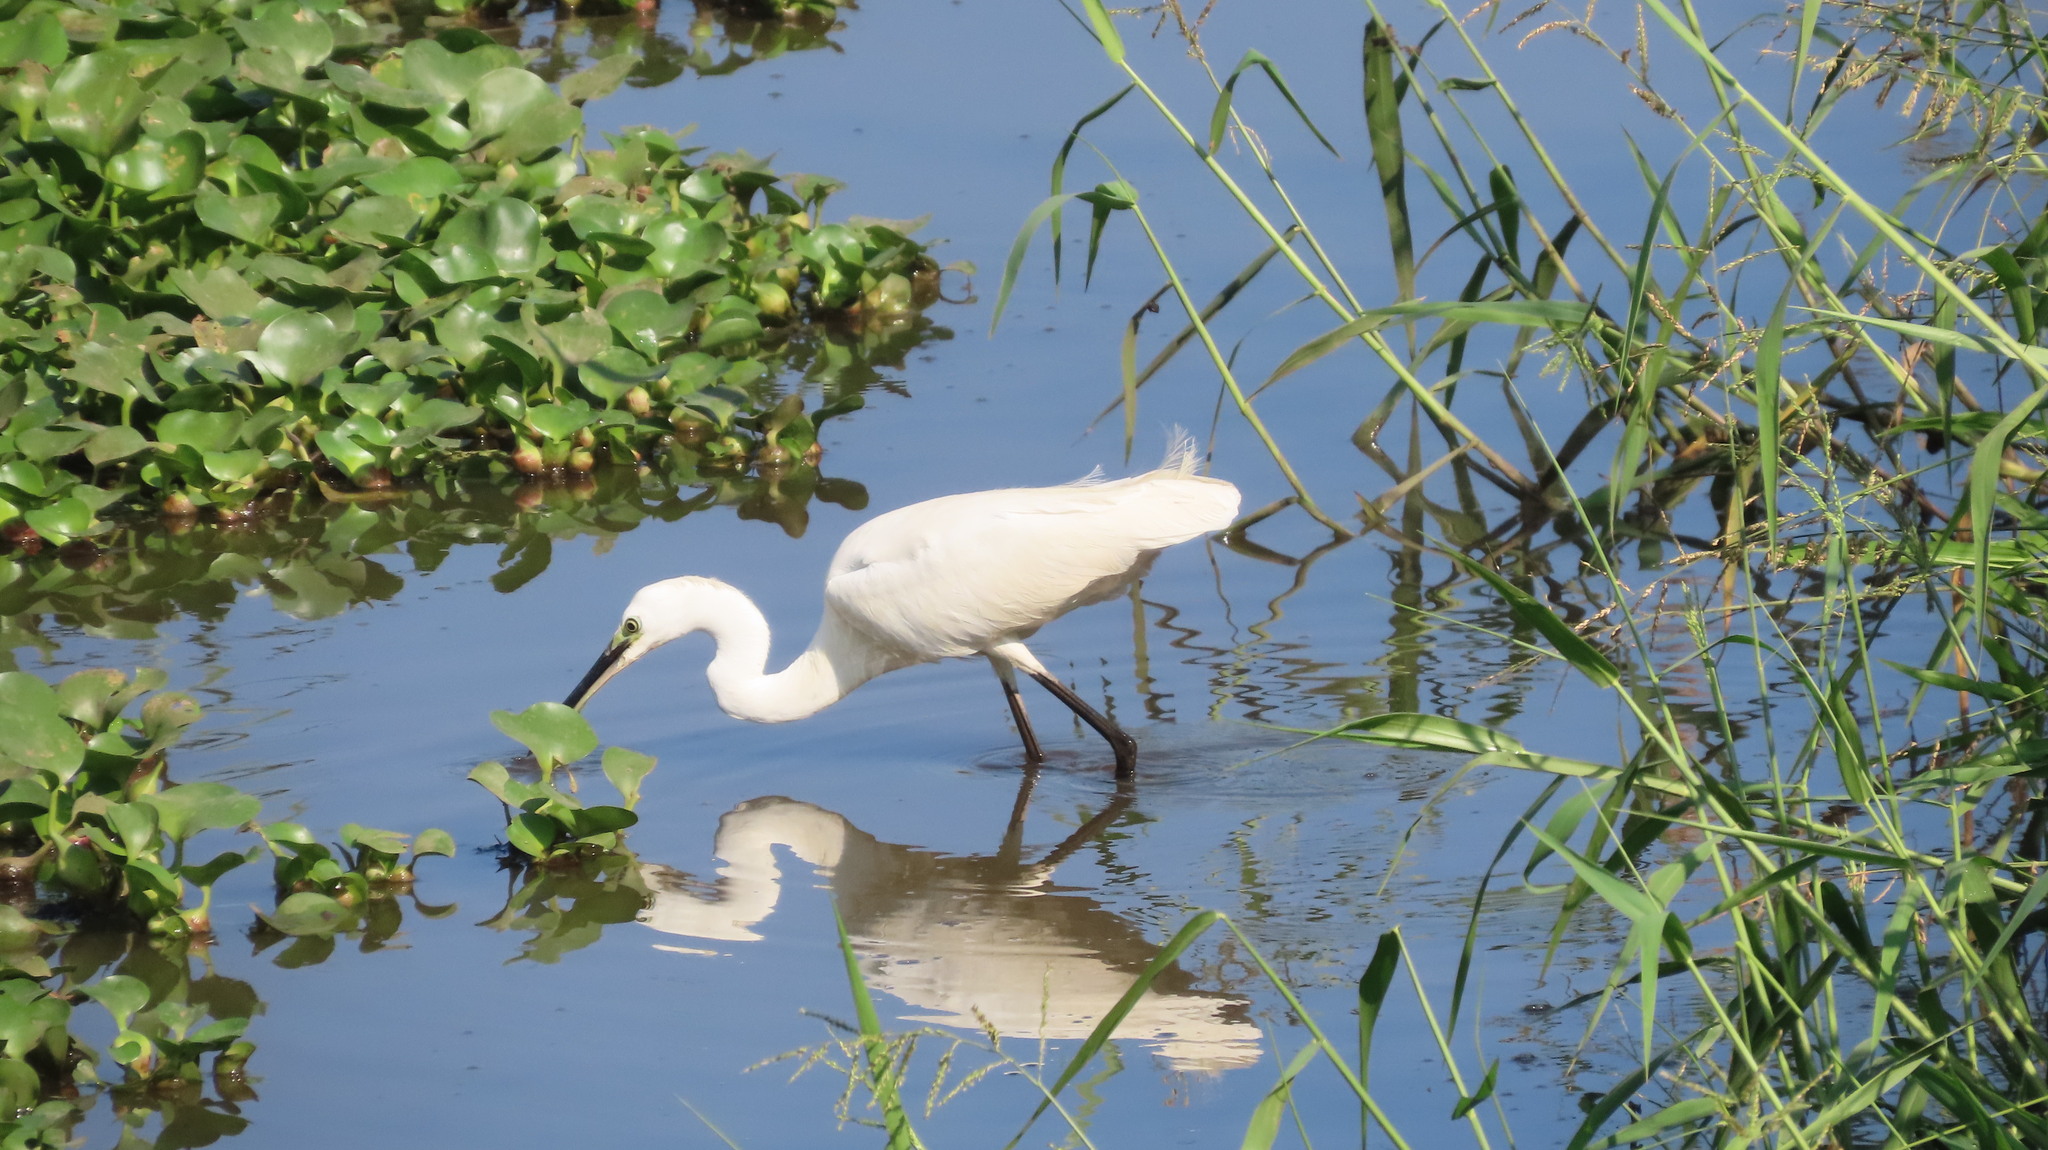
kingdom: Animalia
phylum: Chordata
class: Aves
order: Pelecaniformes
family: Ardeidae
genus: Egretta
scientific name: Egretta garzetta
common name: Little egret
